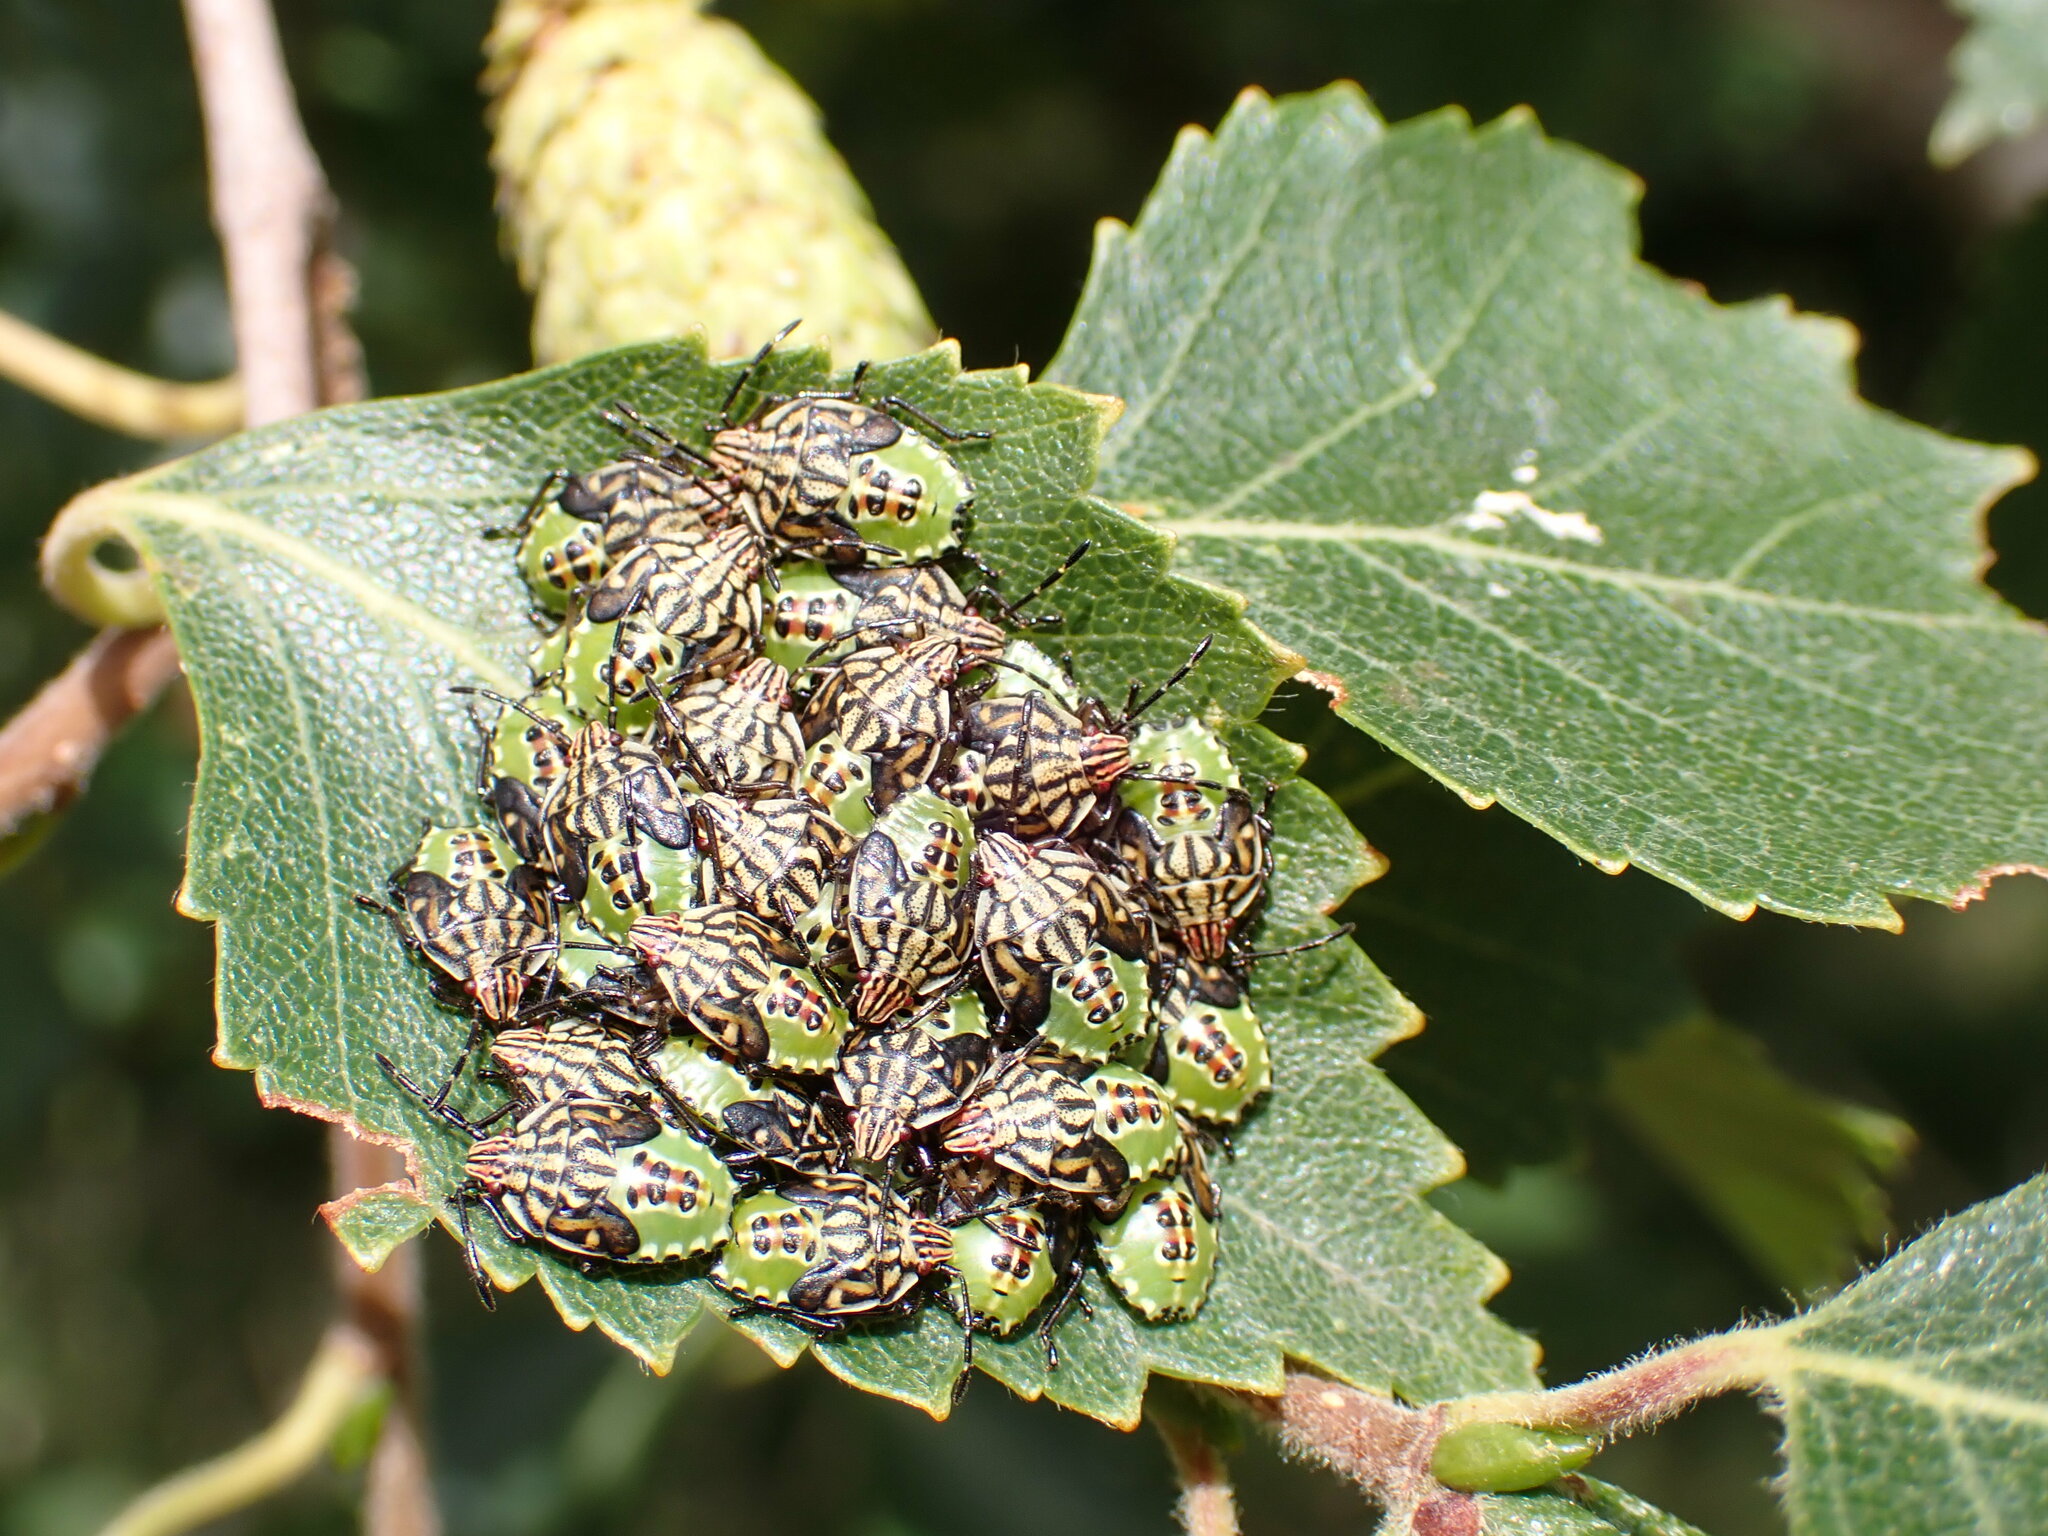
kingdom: Animalia
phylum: Arthropoda
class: Insecta
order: Hemiptera
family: Acanthosomatidae
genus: Elasmucha
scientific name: Elasmucha grisea
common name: Parent bug
